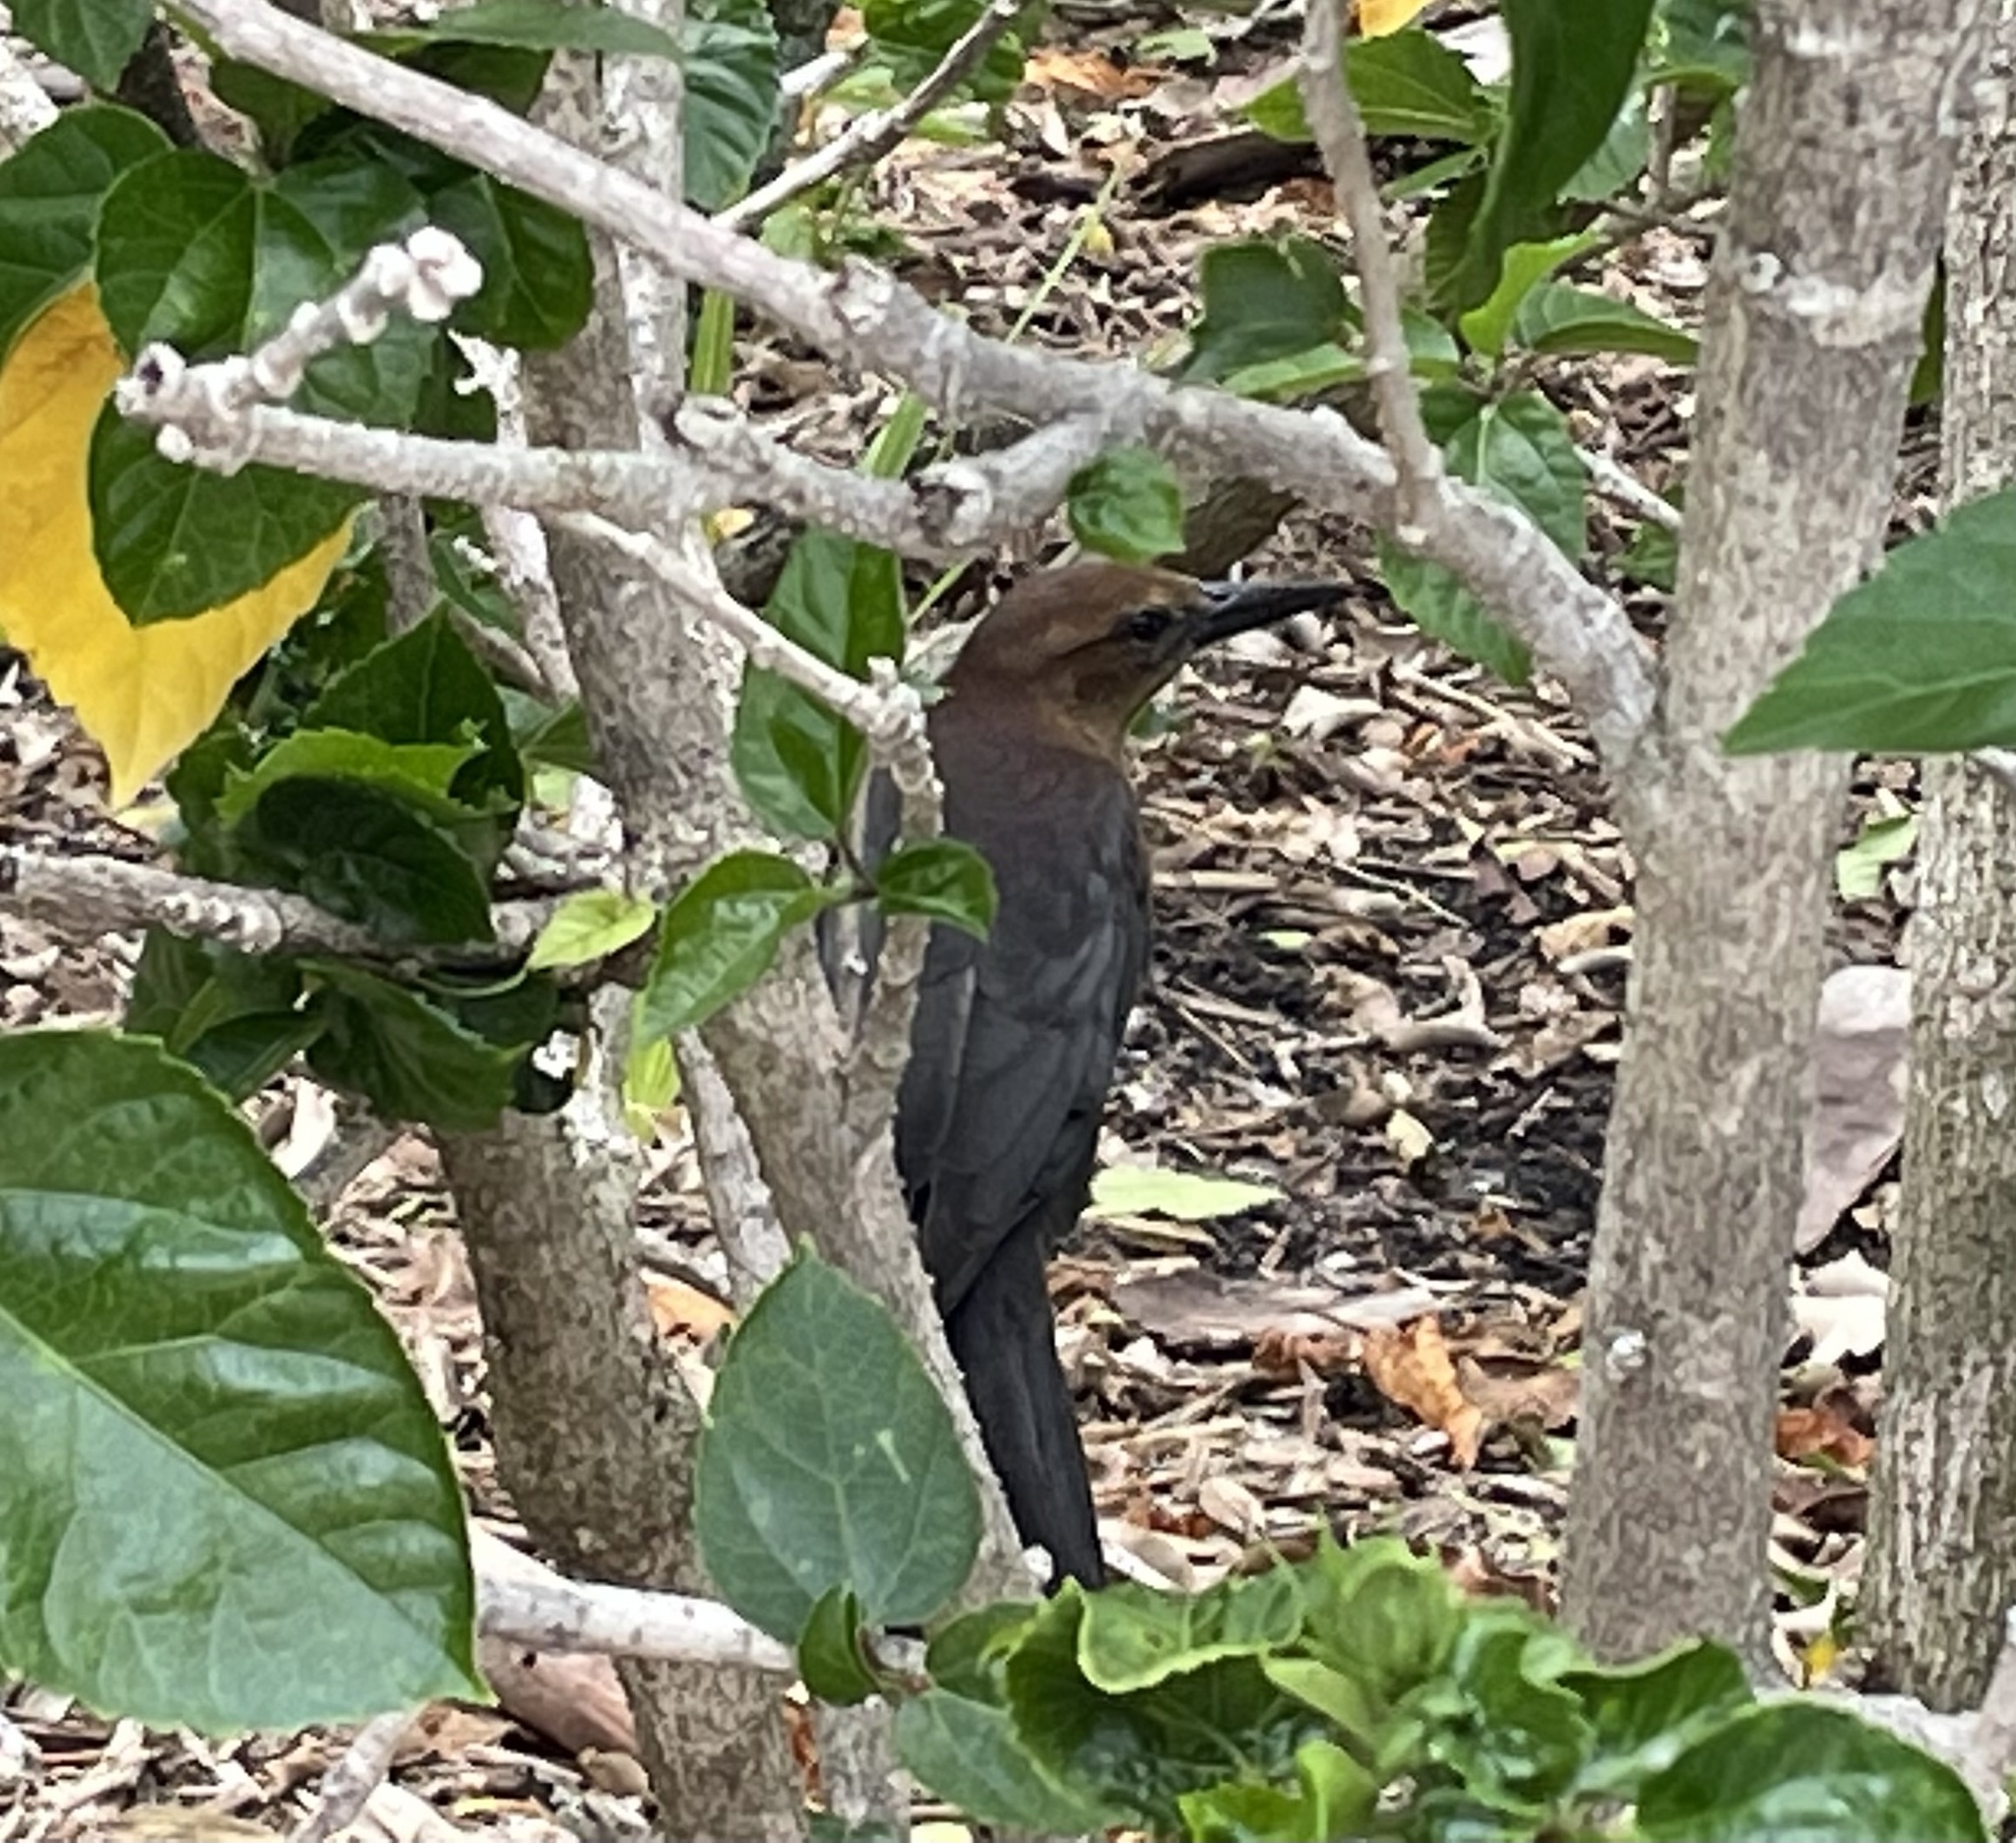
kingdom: Animalia
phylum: Chordata
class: Aves
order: Passeriformes
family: Icteridae
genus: Quiscalus
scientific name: Quiscalus major
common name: Boat-tailed grackle
